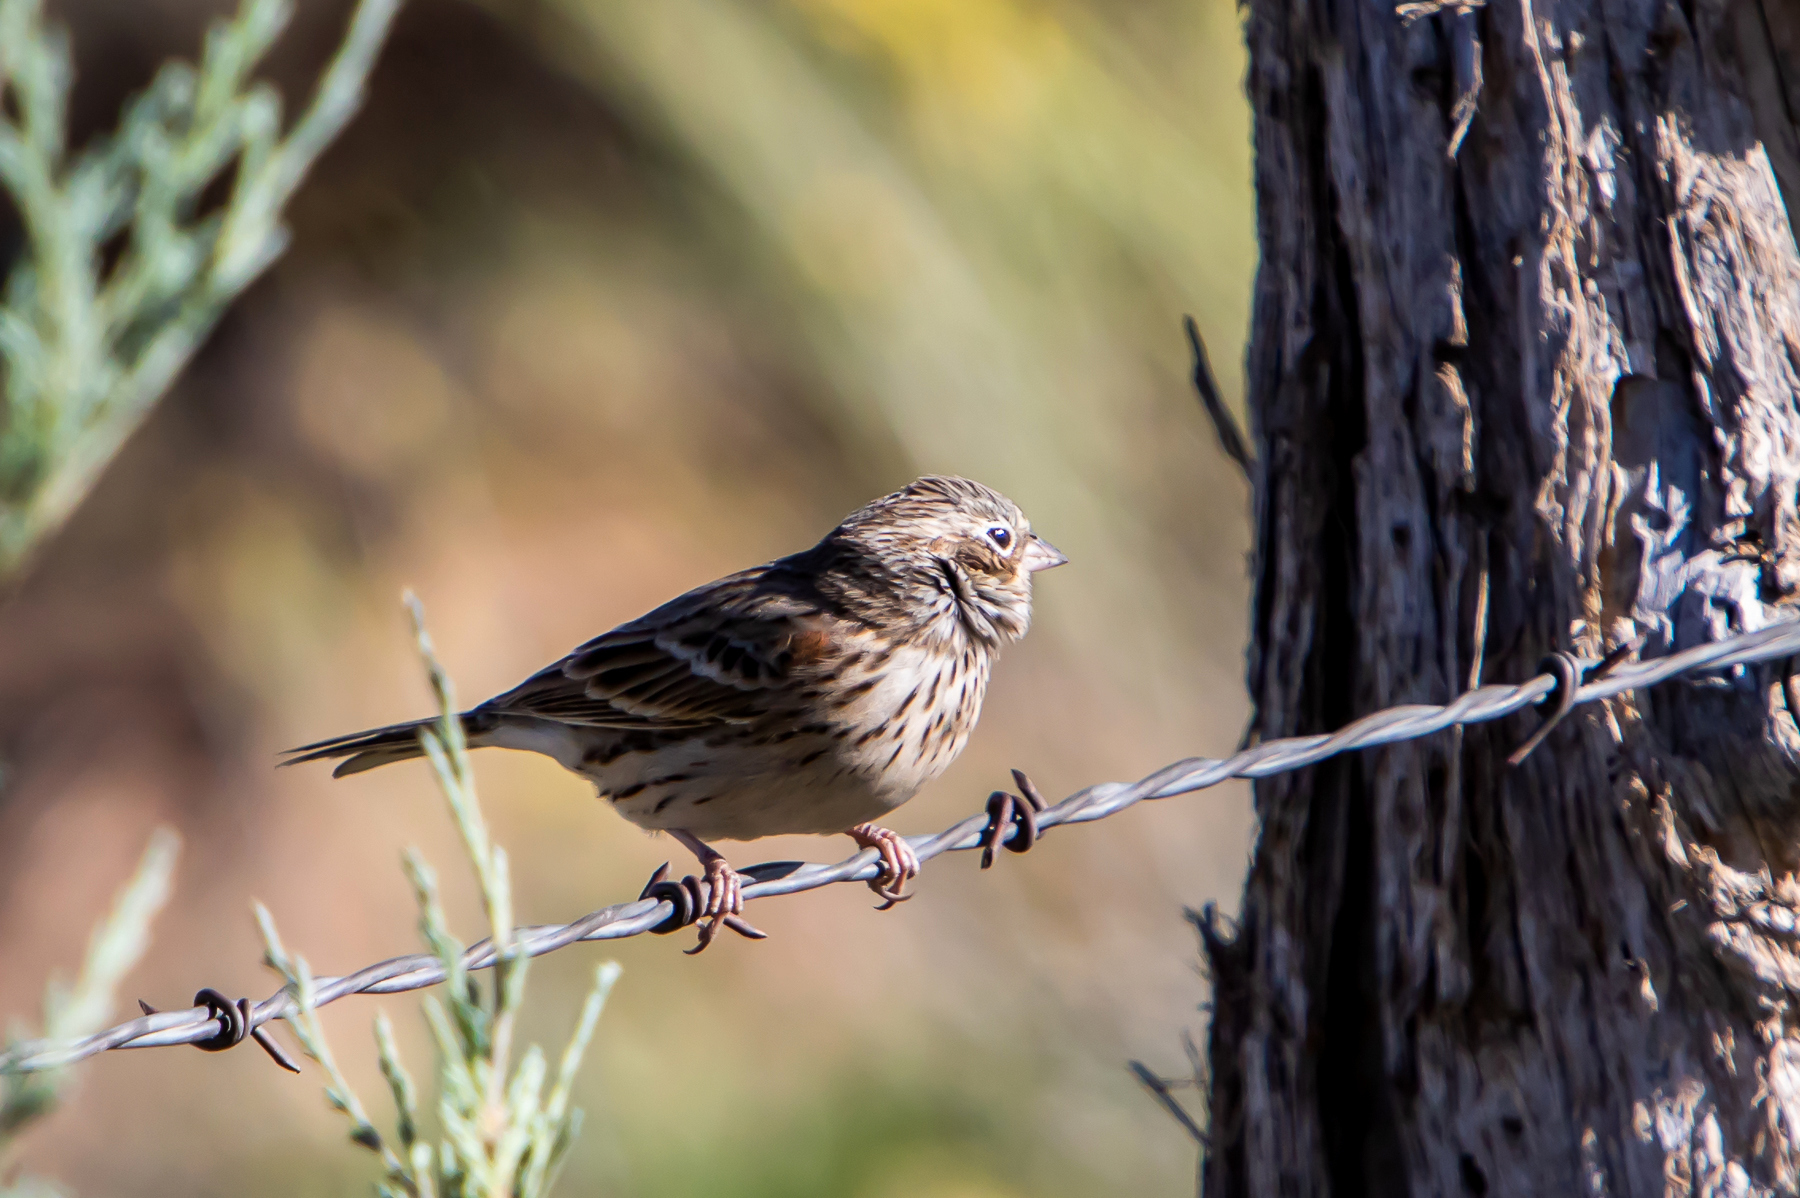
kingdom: Animalia
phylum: Chordata
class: Aves
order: Passeriformes
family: Passerellidae
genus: Pooecetes
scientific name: Pooecetes gramineus
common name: Vesper sparrow
